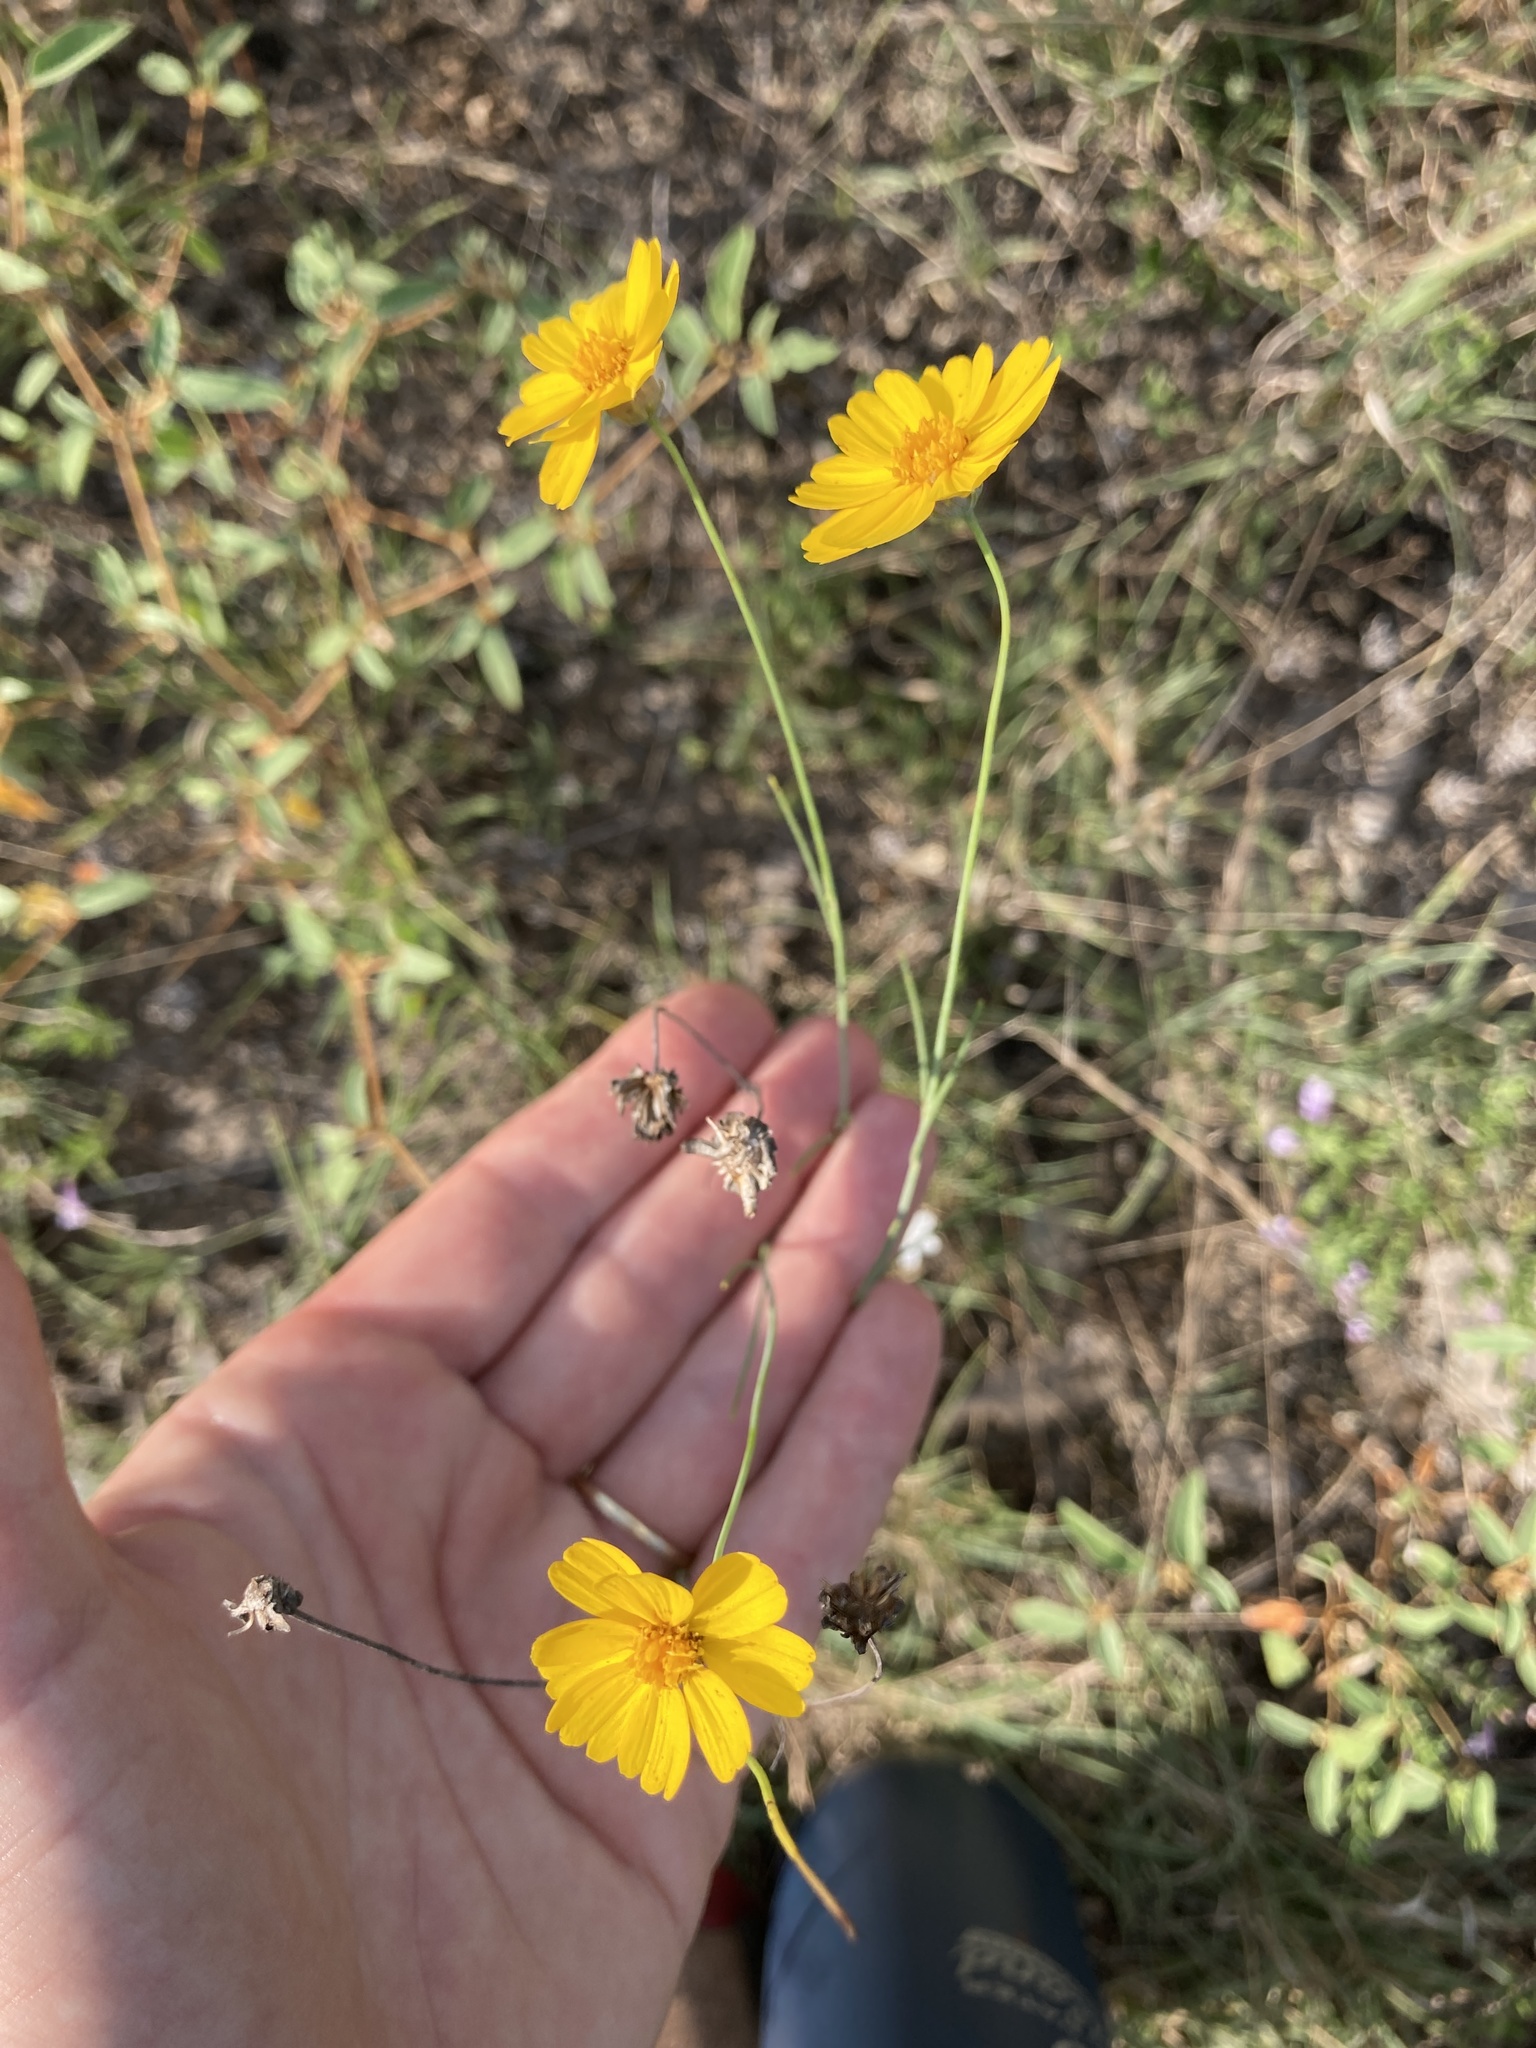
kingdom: Plantae
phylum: Tracheophyta
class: Magnoliopsida
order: Asterales
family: Asteraceae
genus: Thelesperma
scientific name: Thelesperma simplicifolium
